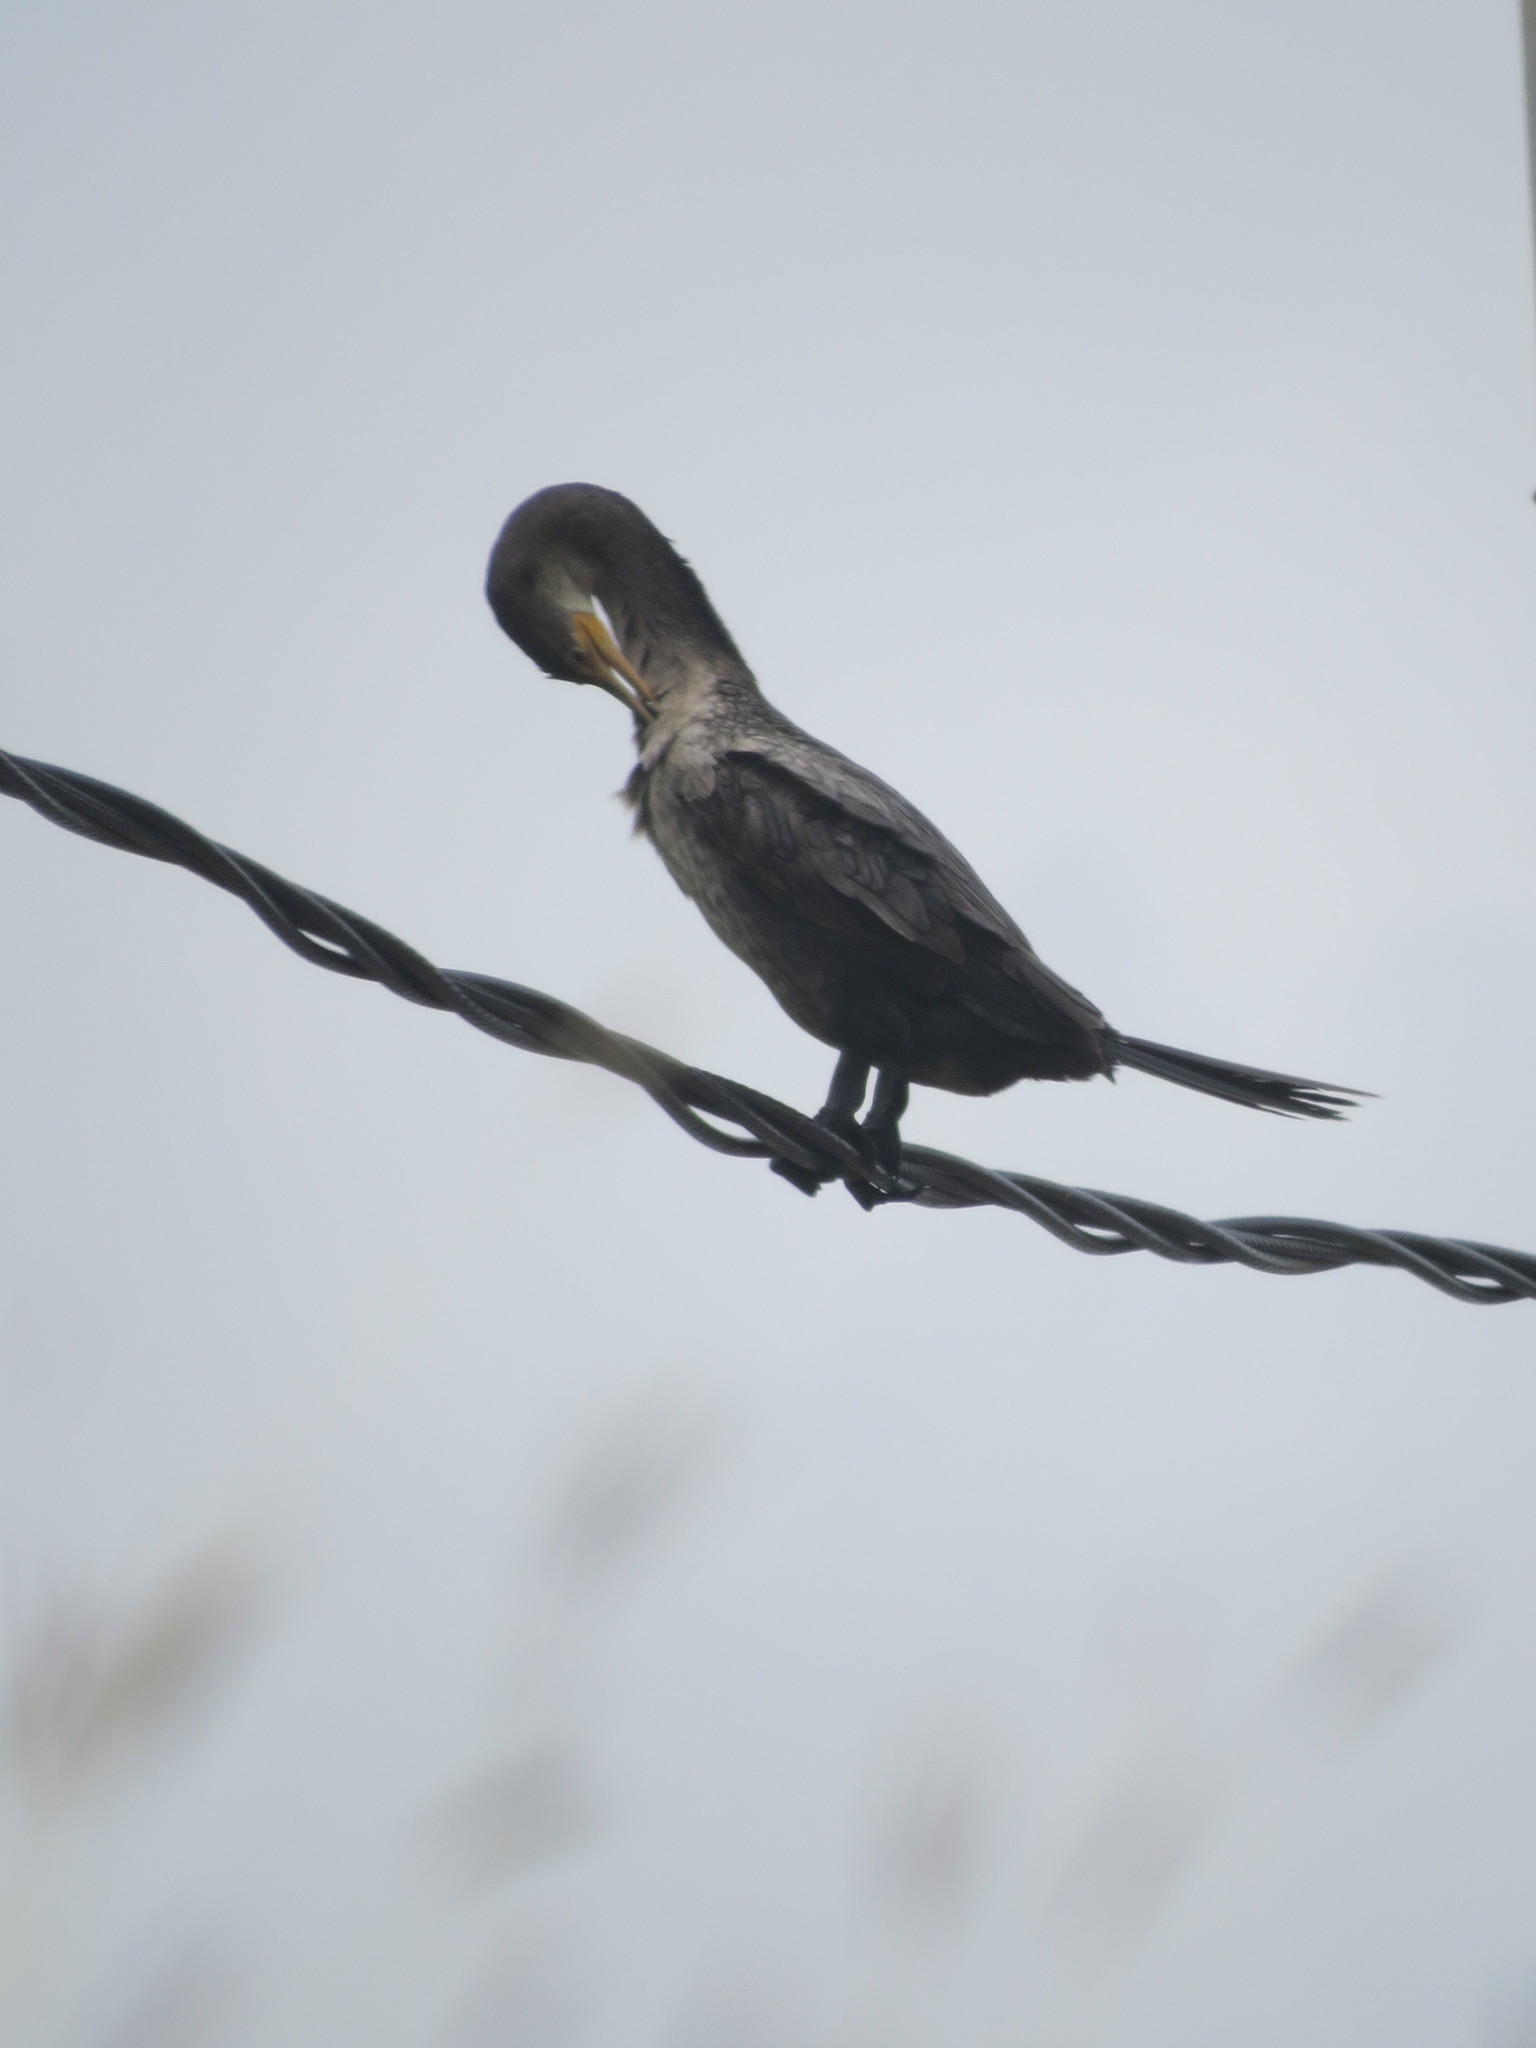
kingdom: Animalia
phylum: Chordata
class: Aves
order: Suliformes
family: Phalacrocoracidae
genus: Phalacrocorax
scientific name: Phalacrocorax auritus
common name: Double-crested cormorant
